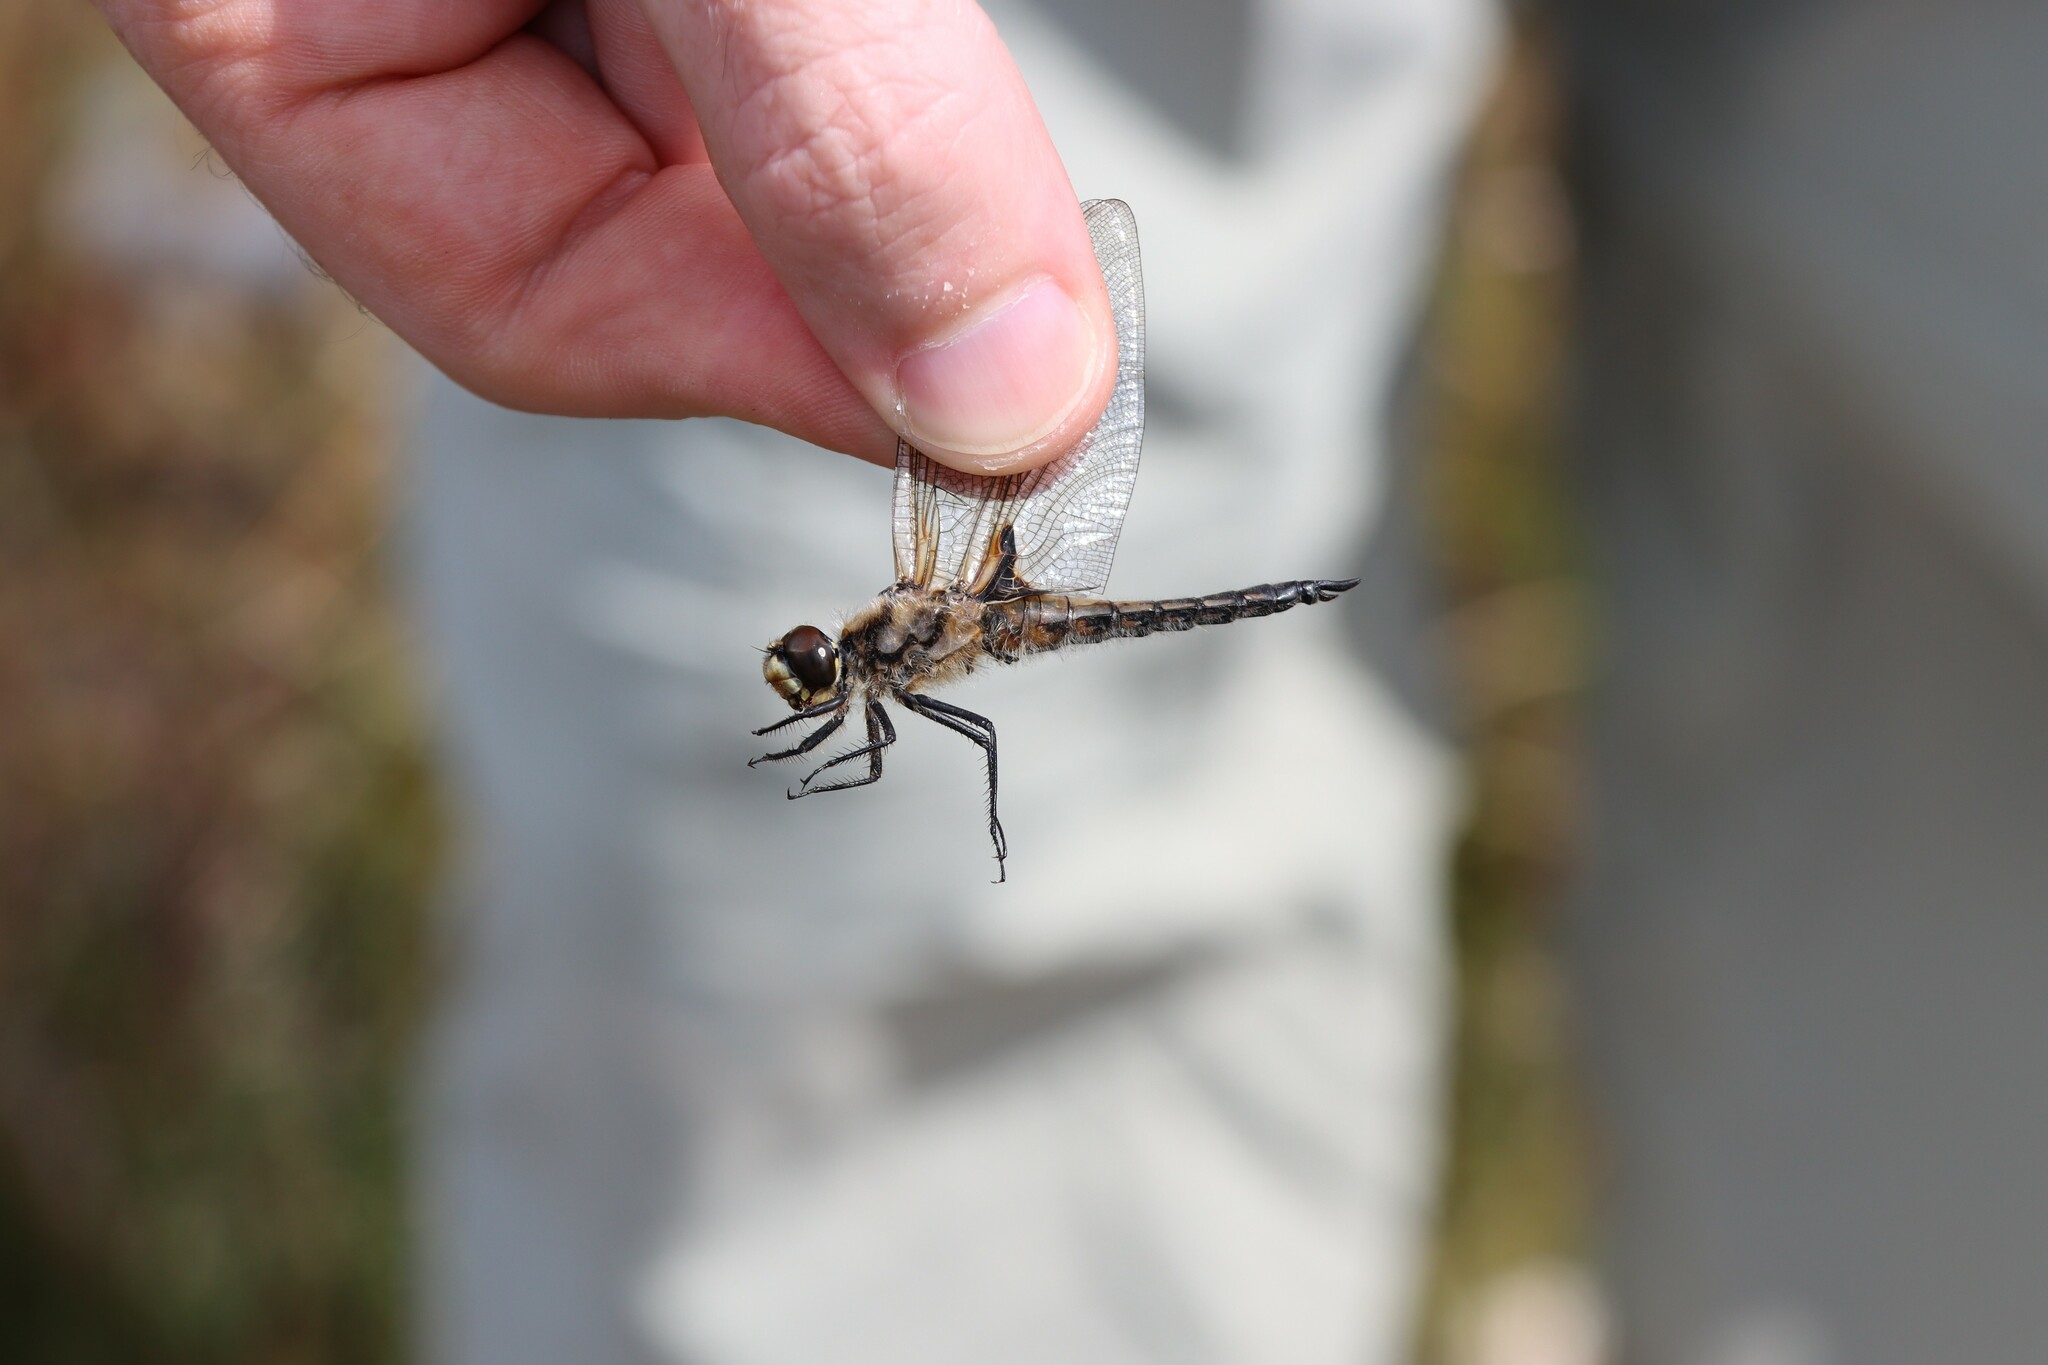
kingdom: Animalia
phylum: Arthropoda
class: Insecta
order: Odonata
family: Libellulidae
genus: Libellula
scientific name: Libellula quadrimaculata
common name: Four-spotted chaser
